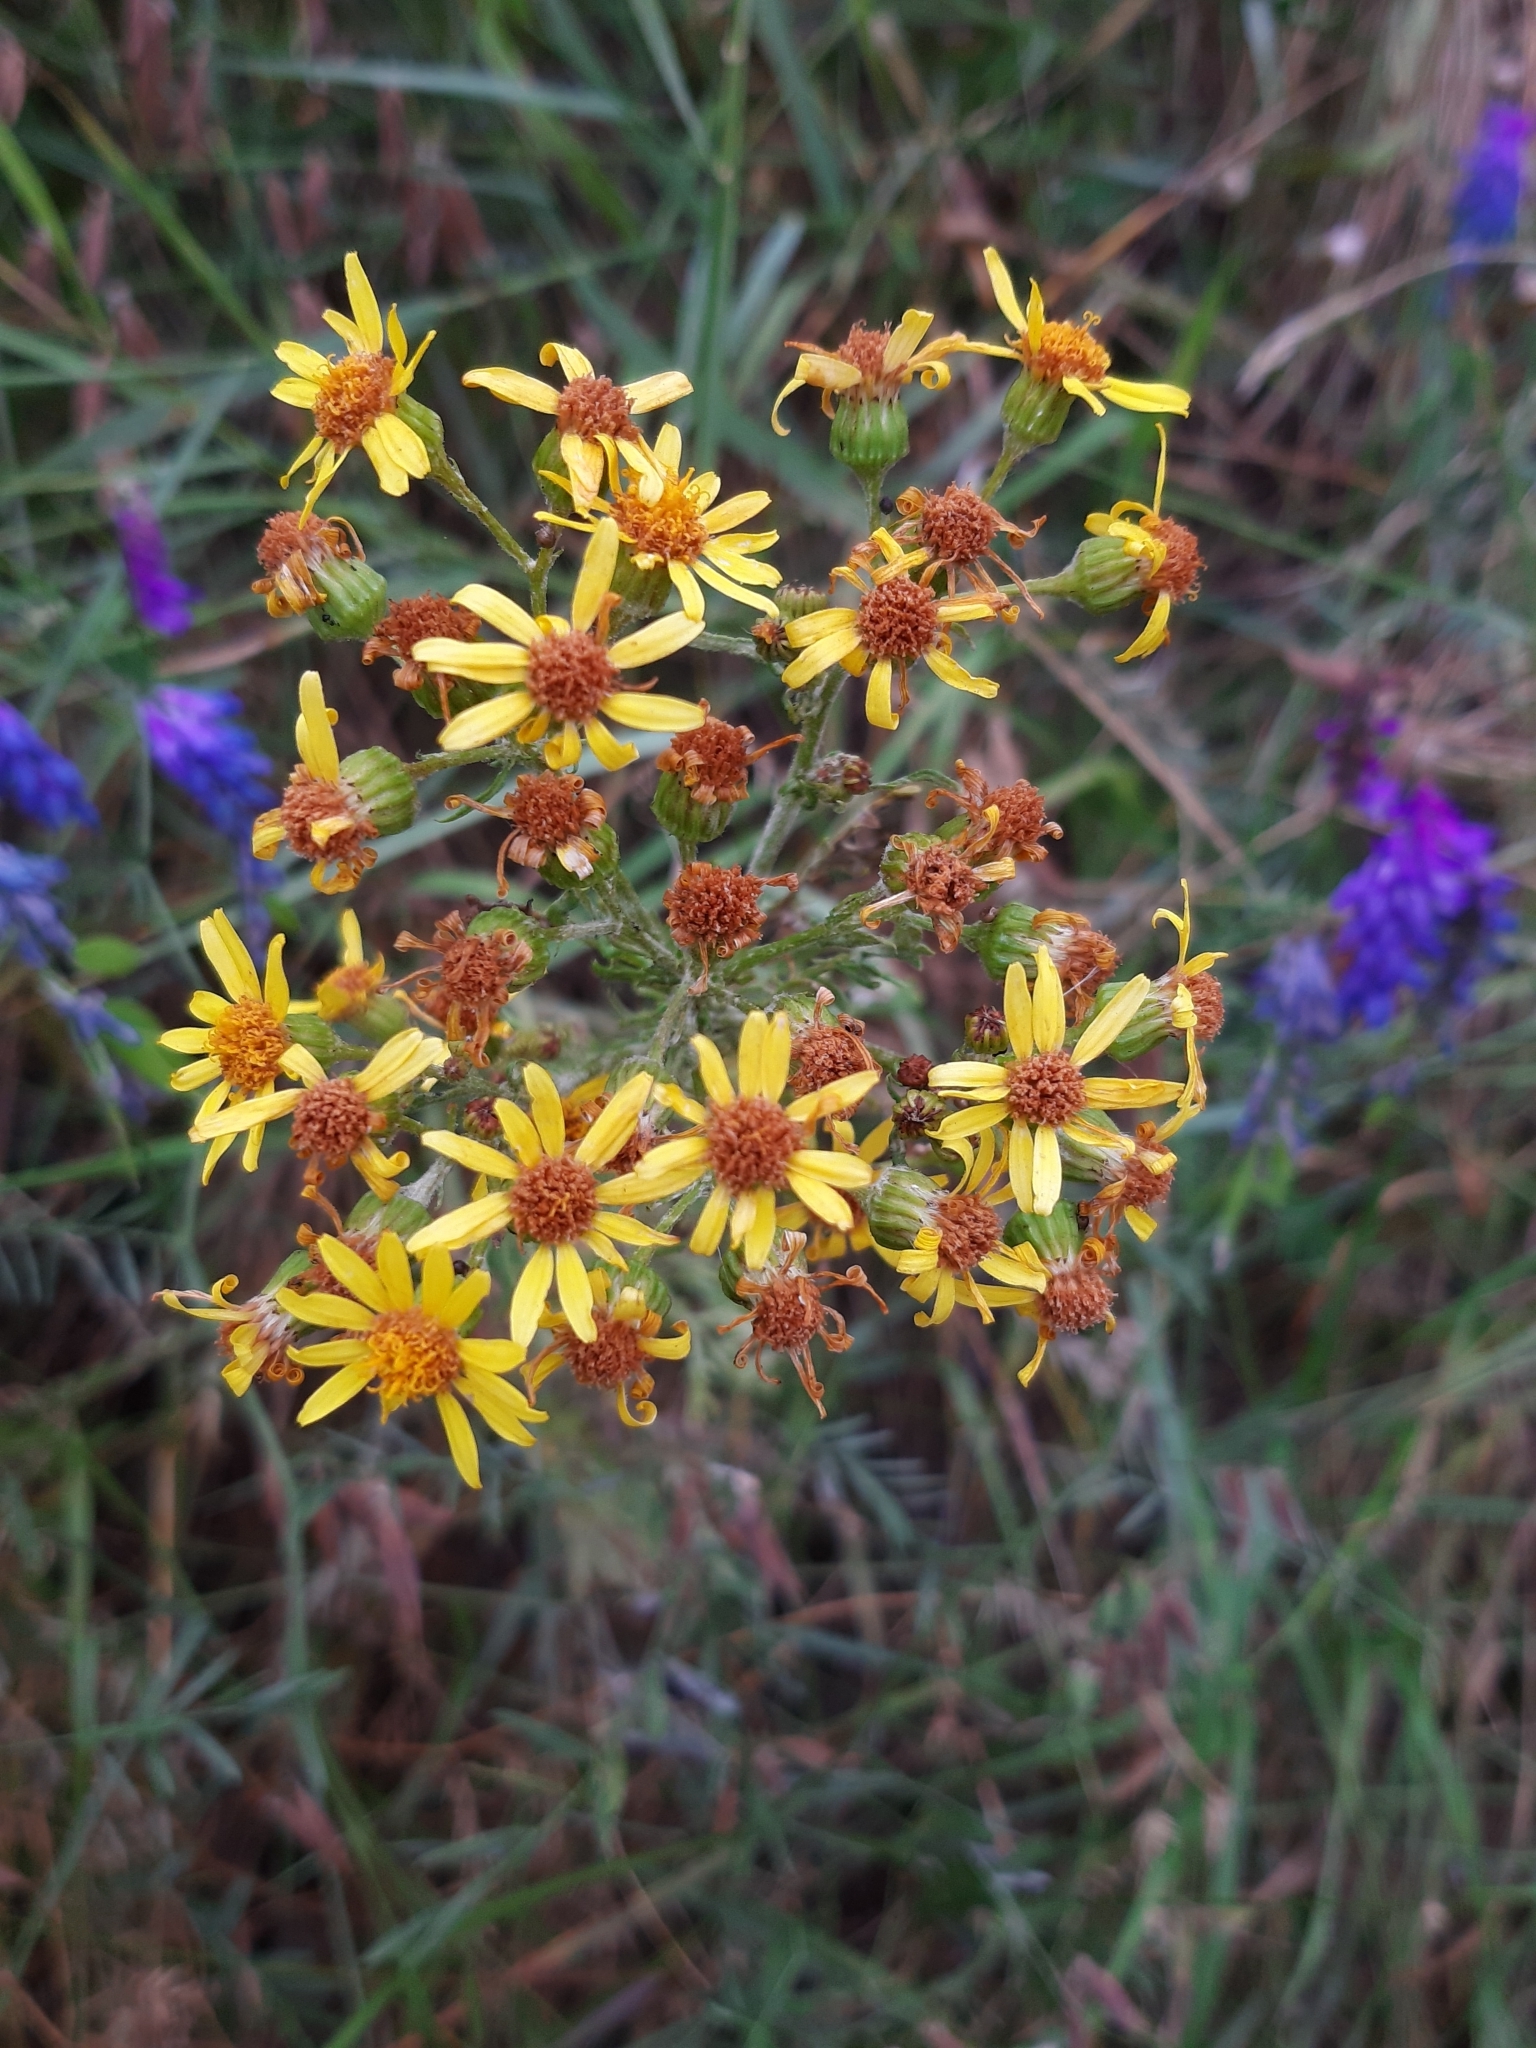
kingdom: Plantae
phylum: Tracheophyta
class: Magnoliopsida
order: Asterales
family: Asteraceae
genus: Jacobaea
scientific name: Jacobaea vulgaris
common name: Stinking willie
